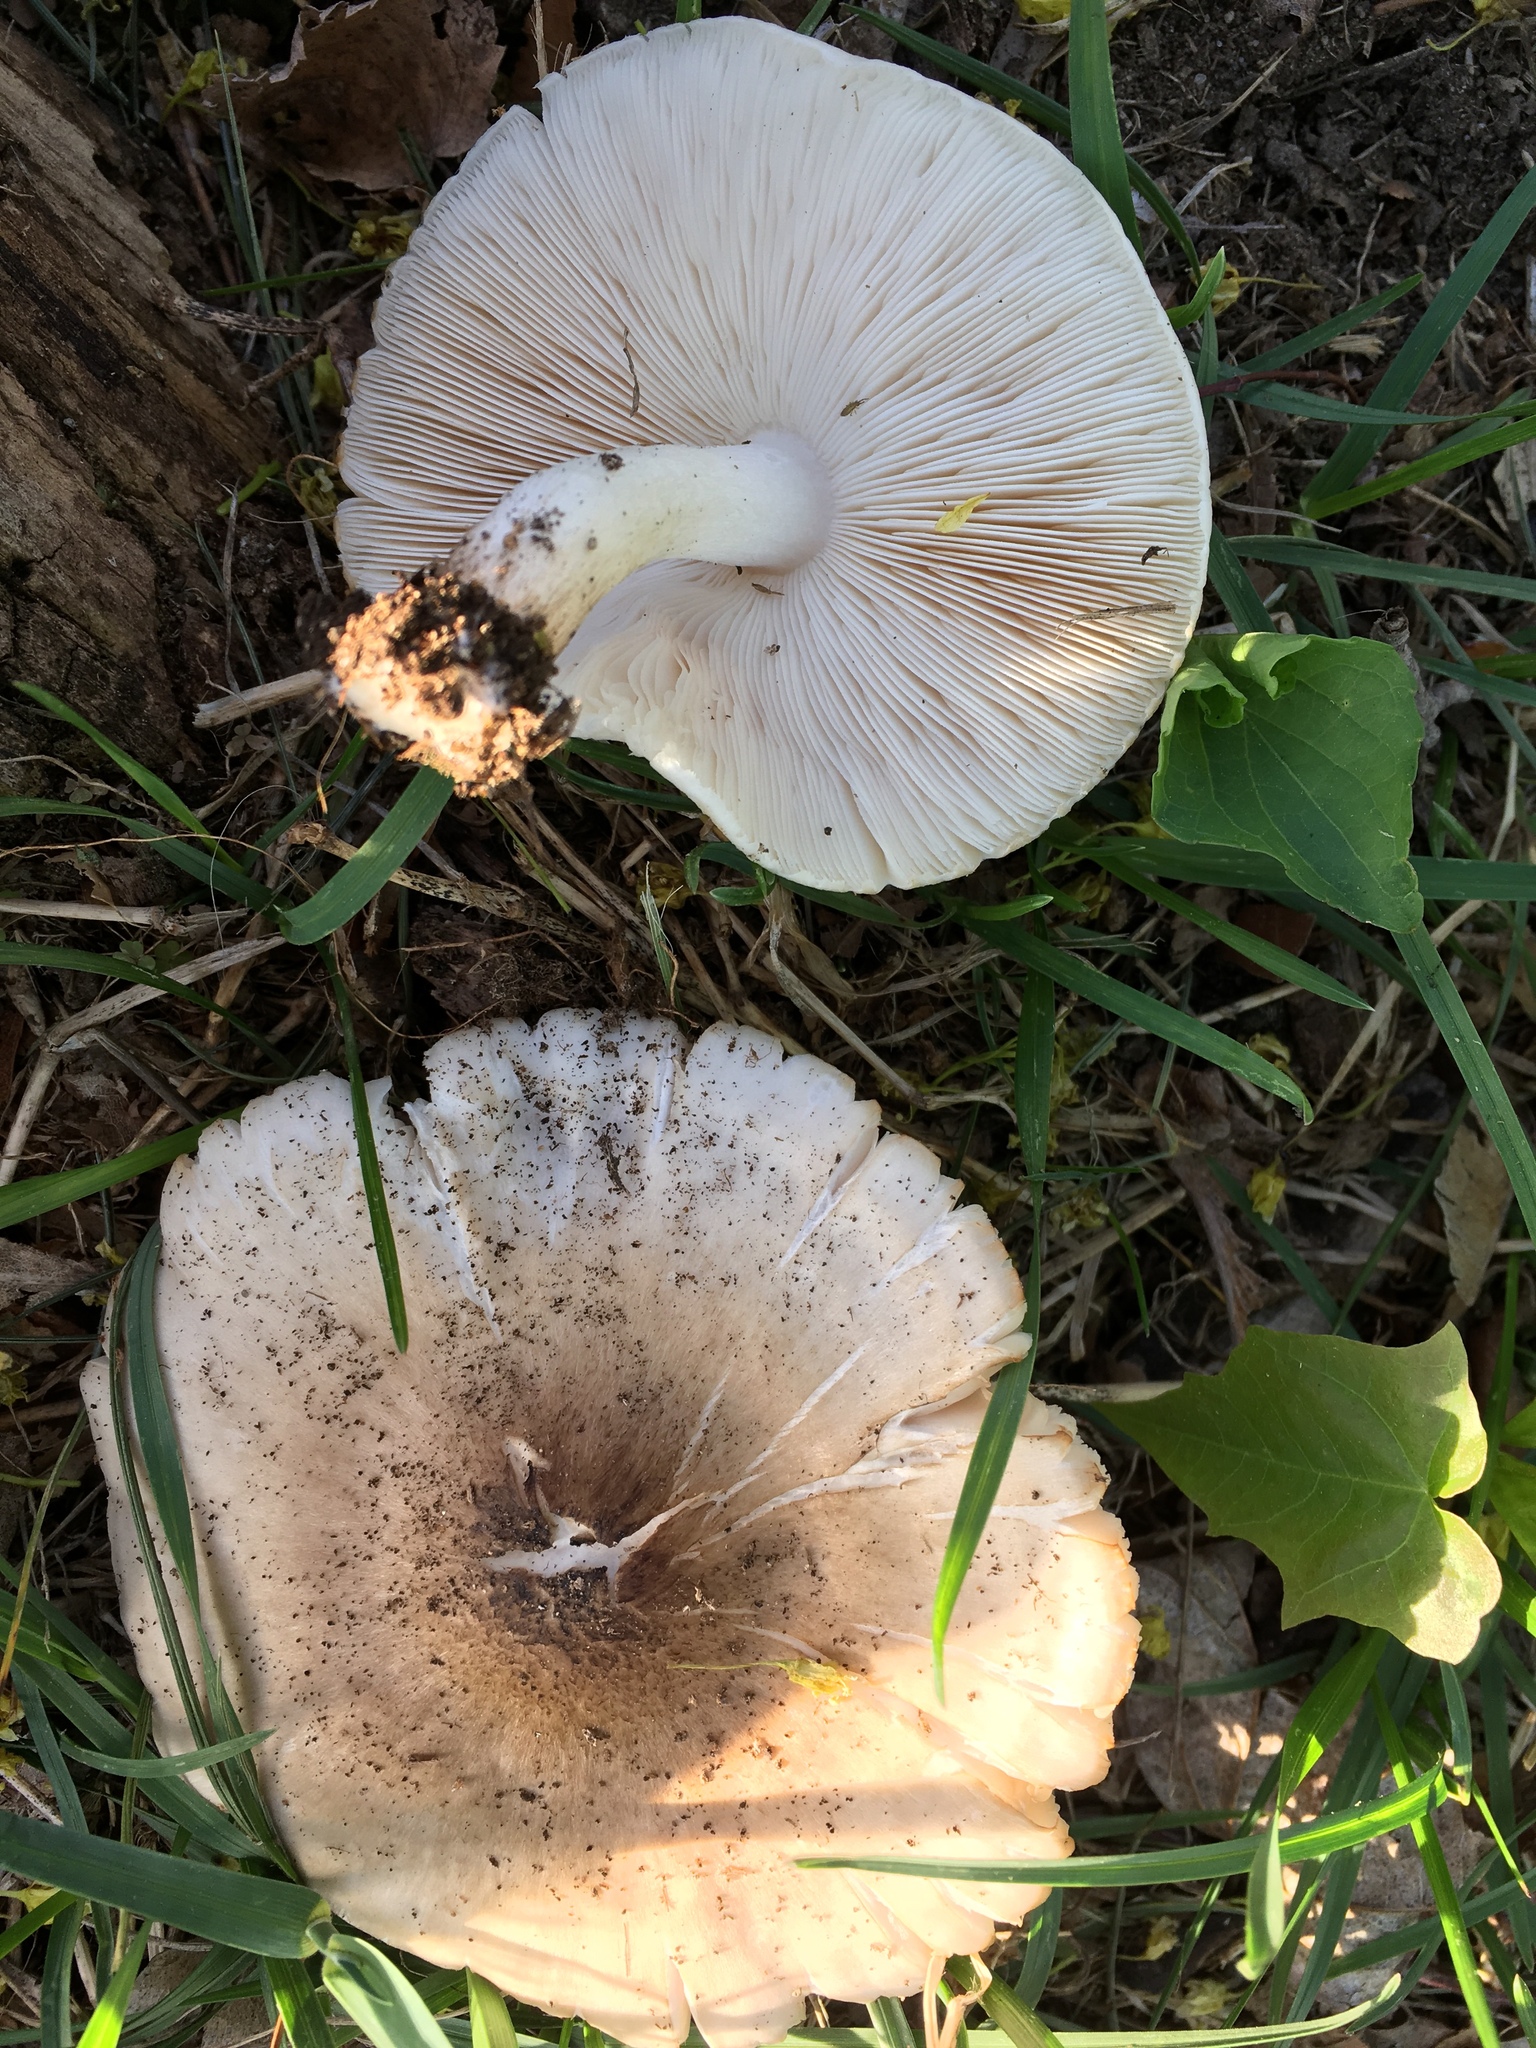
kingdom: Fungi
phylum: Basidiomycota
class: Agaricomycetes
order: Agaricales
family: Pluteaceae
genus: Pluteus
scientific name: Pluteus cervinus
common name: Deer shield
